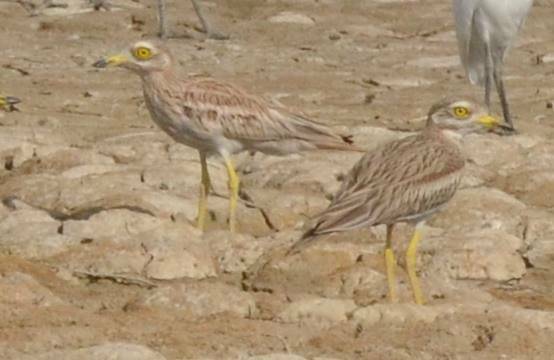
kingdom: Animalia
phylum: Chordata
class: Aves
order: Charadriiformes
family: Burhinidae
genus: Burhinus
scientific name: Burhinus oedicnemus
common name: Eurasian stone-curlew
